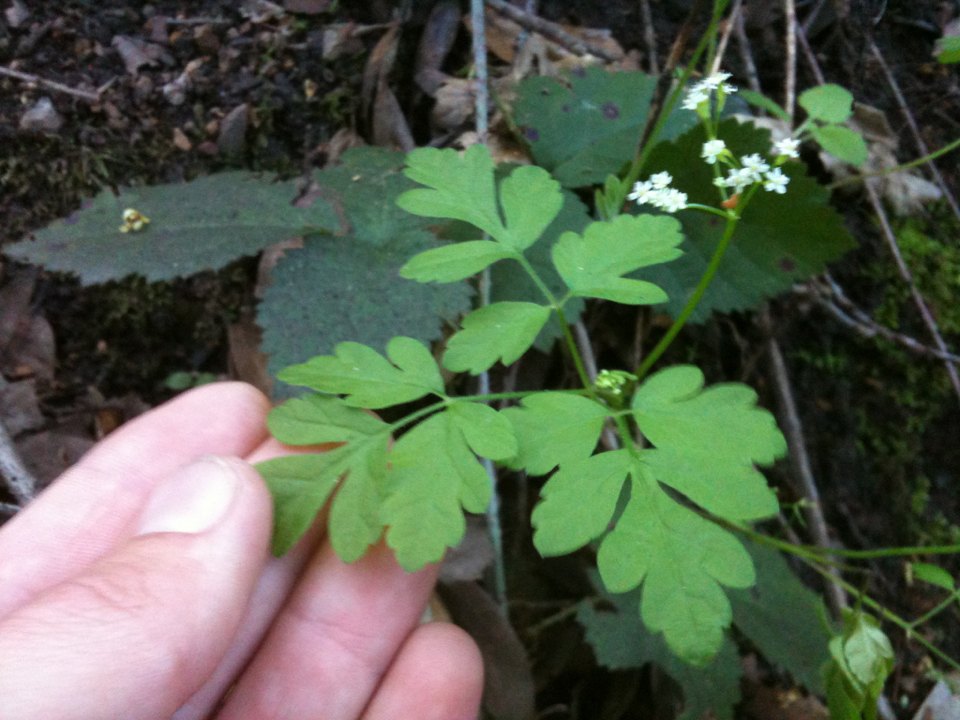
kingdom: Plantae
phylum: Tracheophyta
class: Magnoliopsida
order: Apiales
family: Apiaceae
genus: Osmorhiza
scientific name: Osmorhiza berteroi
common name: Mountain sweet cicely
